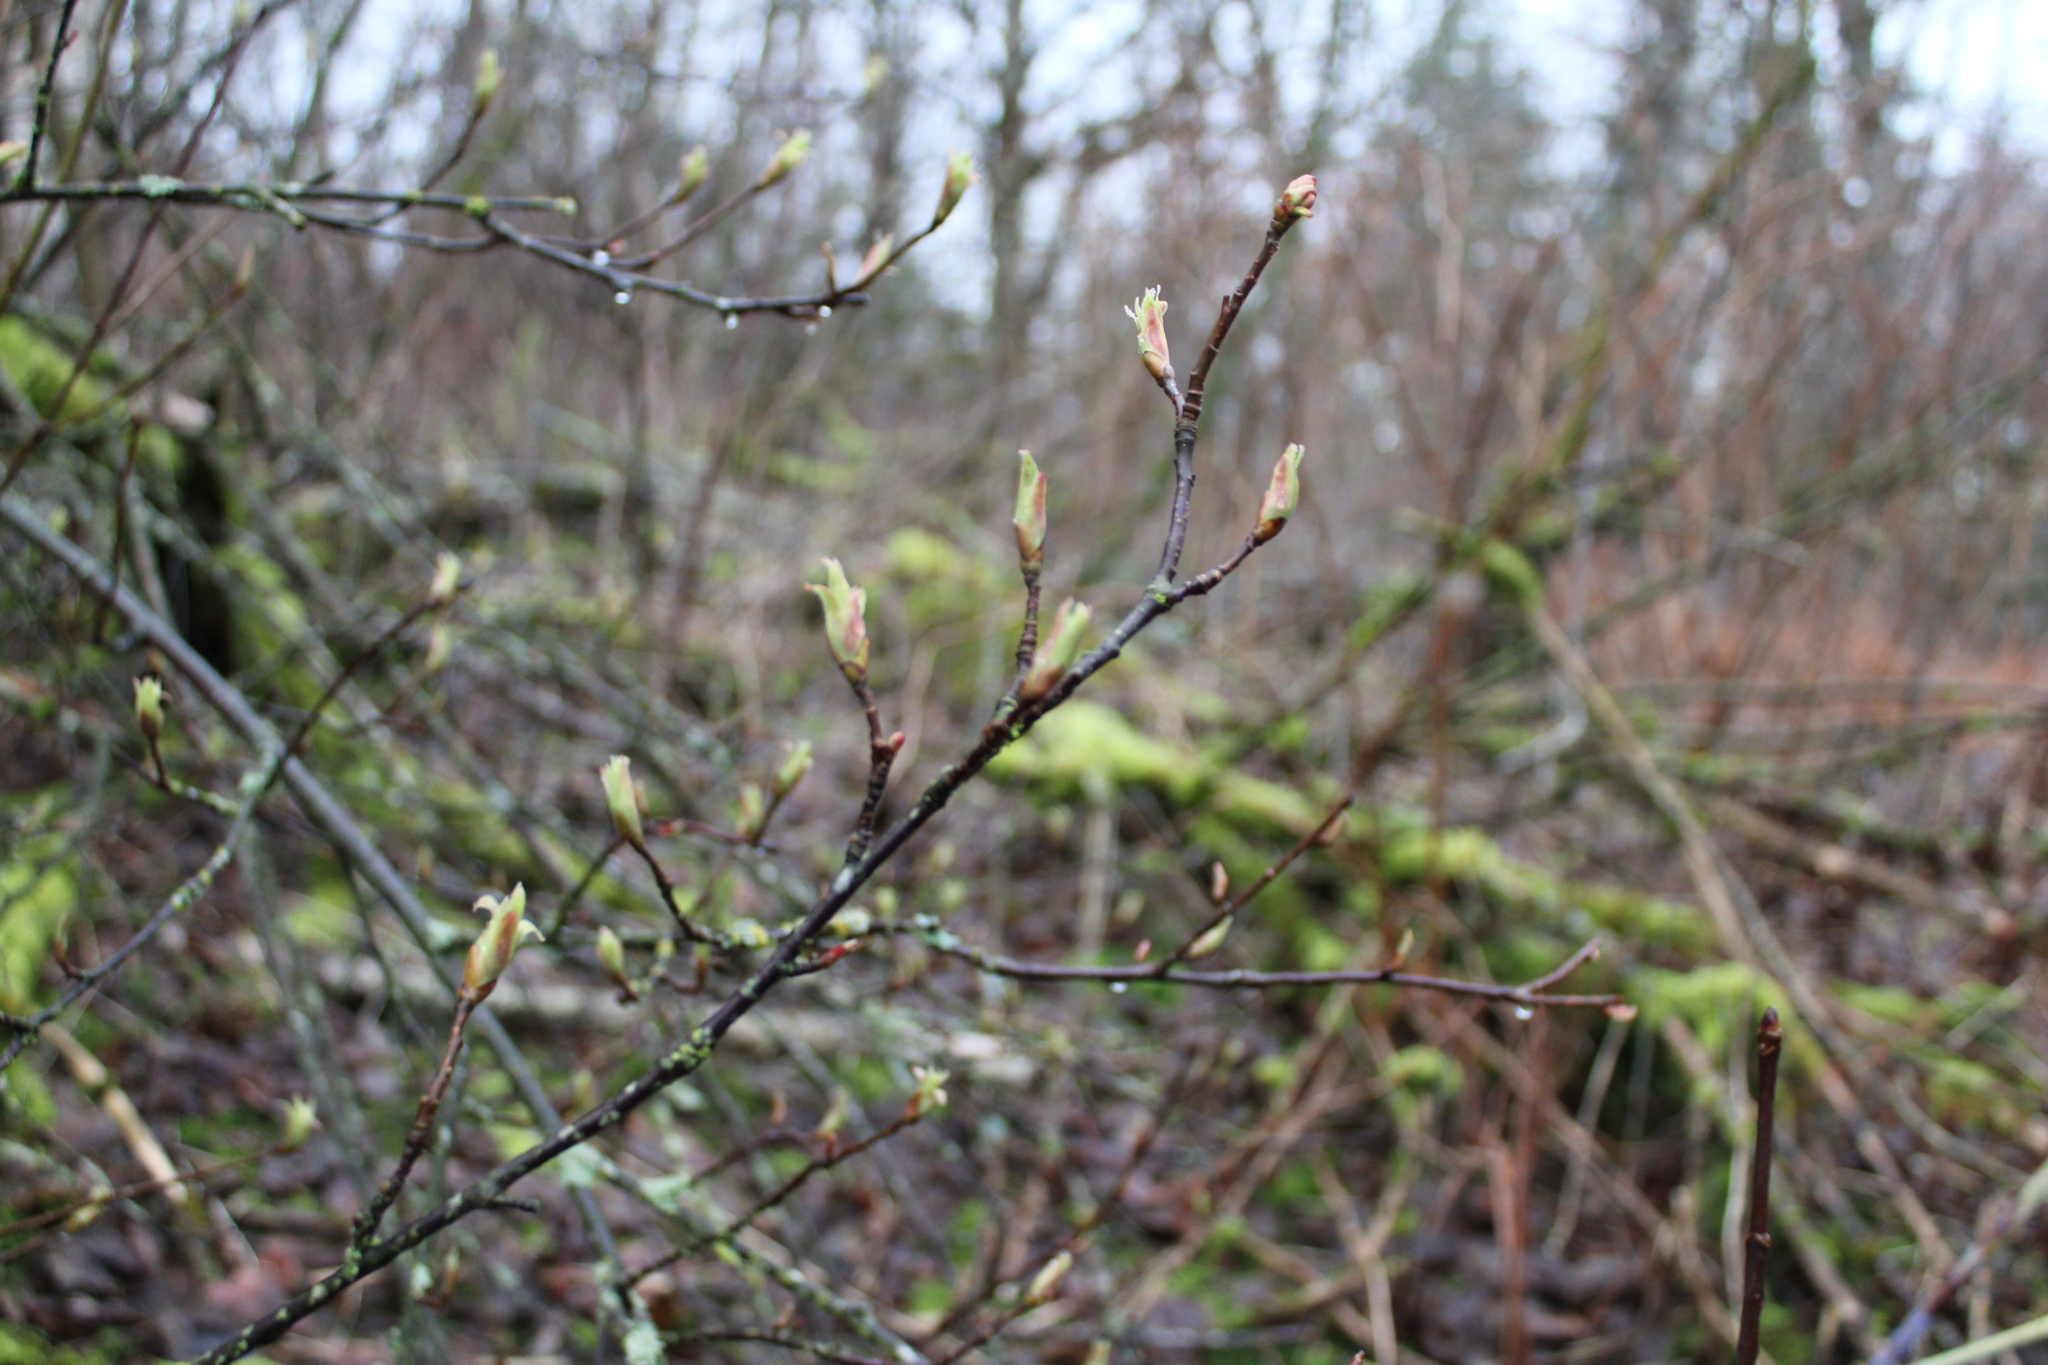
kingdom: Plantae
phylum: Tracheophyta
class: Magnoliopsida
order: Rosales
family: Rosaceae
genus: Oemleria
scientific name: Oemleria cerasiformis
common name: Osoberry
